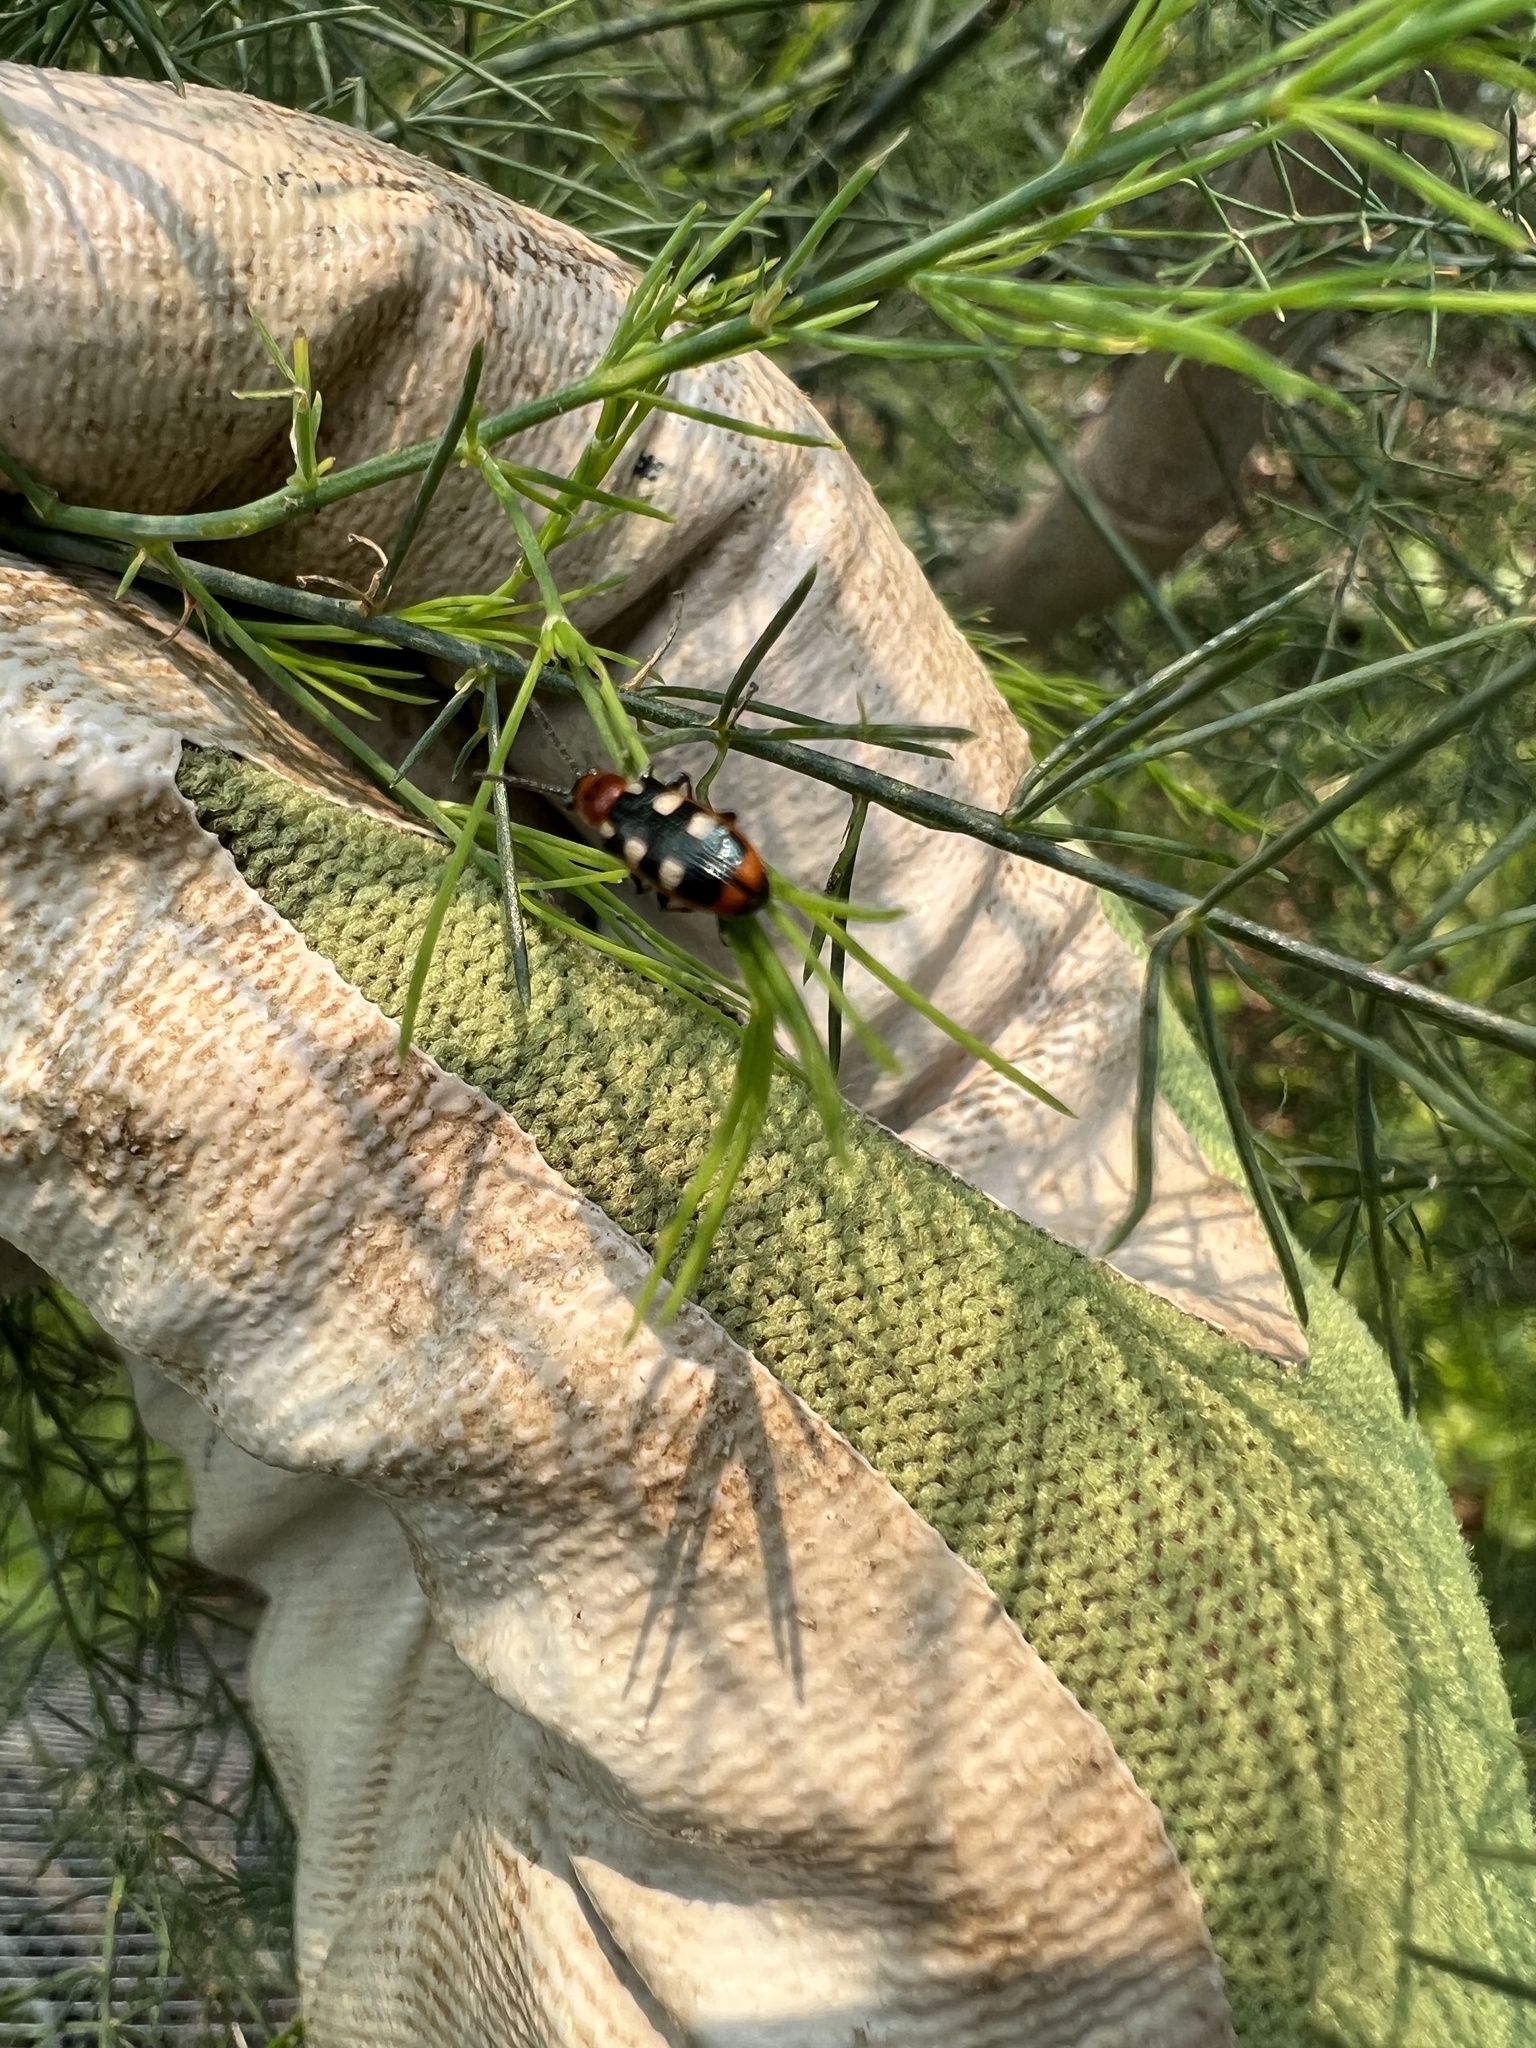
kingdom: Animalia
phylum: Arthropoda
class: Insecta
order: Coleoptera
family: Chrysomelidae
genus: Crioceris
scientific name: Crioceris asparagi
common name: Asparagus beetle
